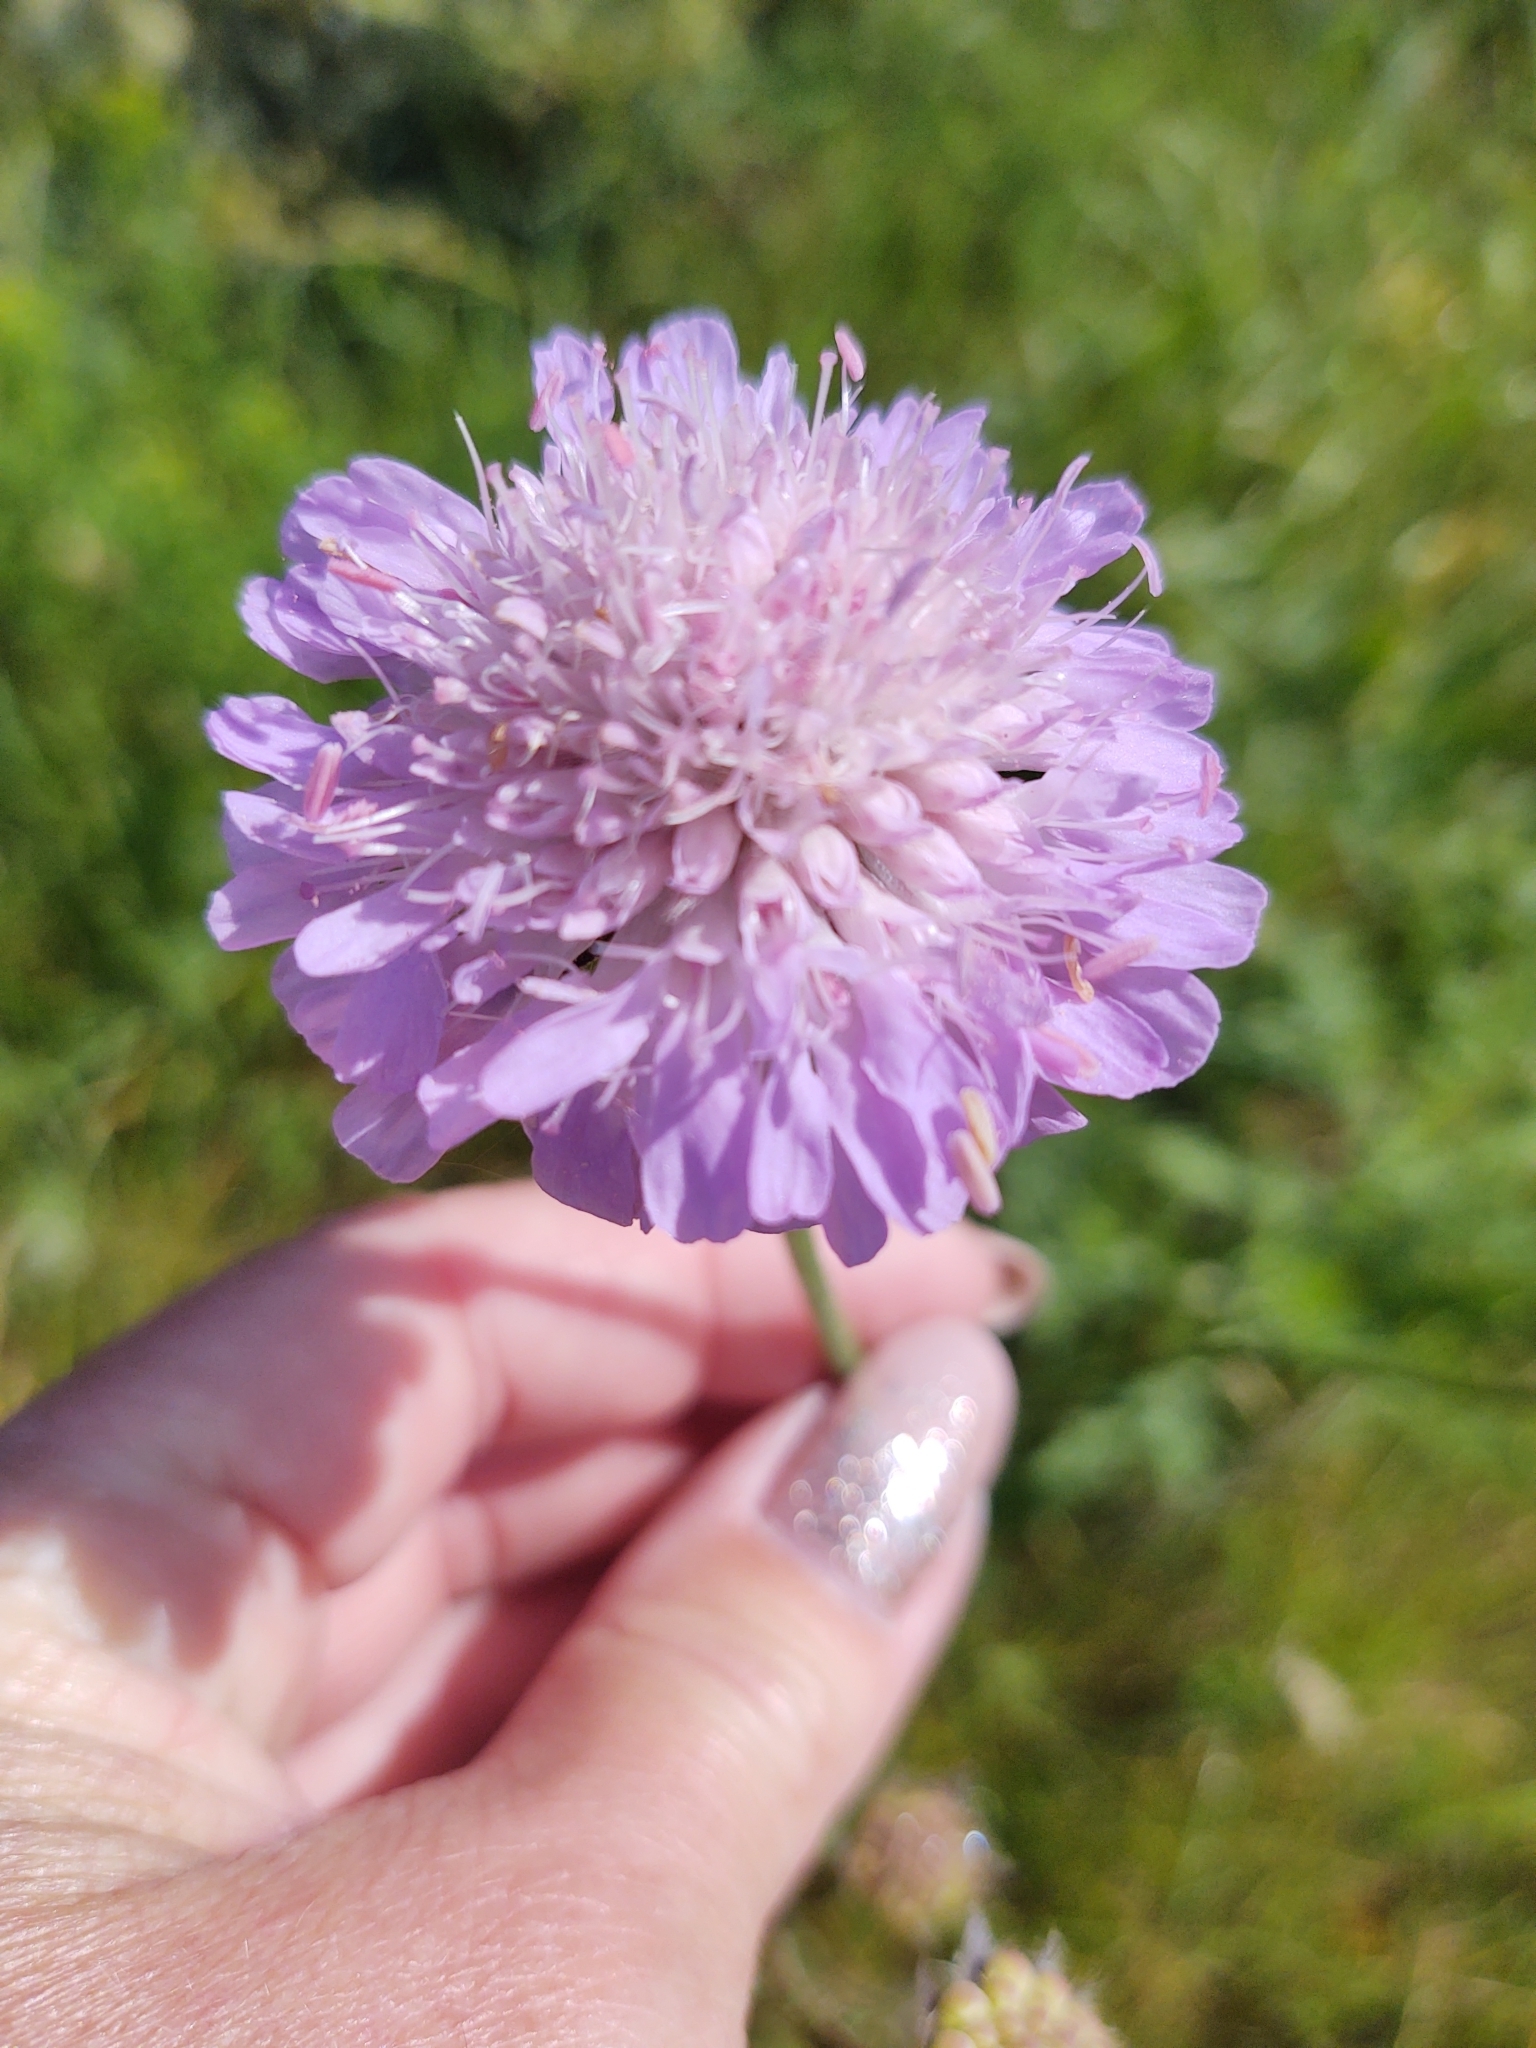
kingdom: Plantae
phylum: Tracheophyta
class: Magnoliopsida
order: Dipsacales
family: Caprifoliaceae
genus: Knautia
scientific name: Knautia arvensis
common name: Field scabiosa
